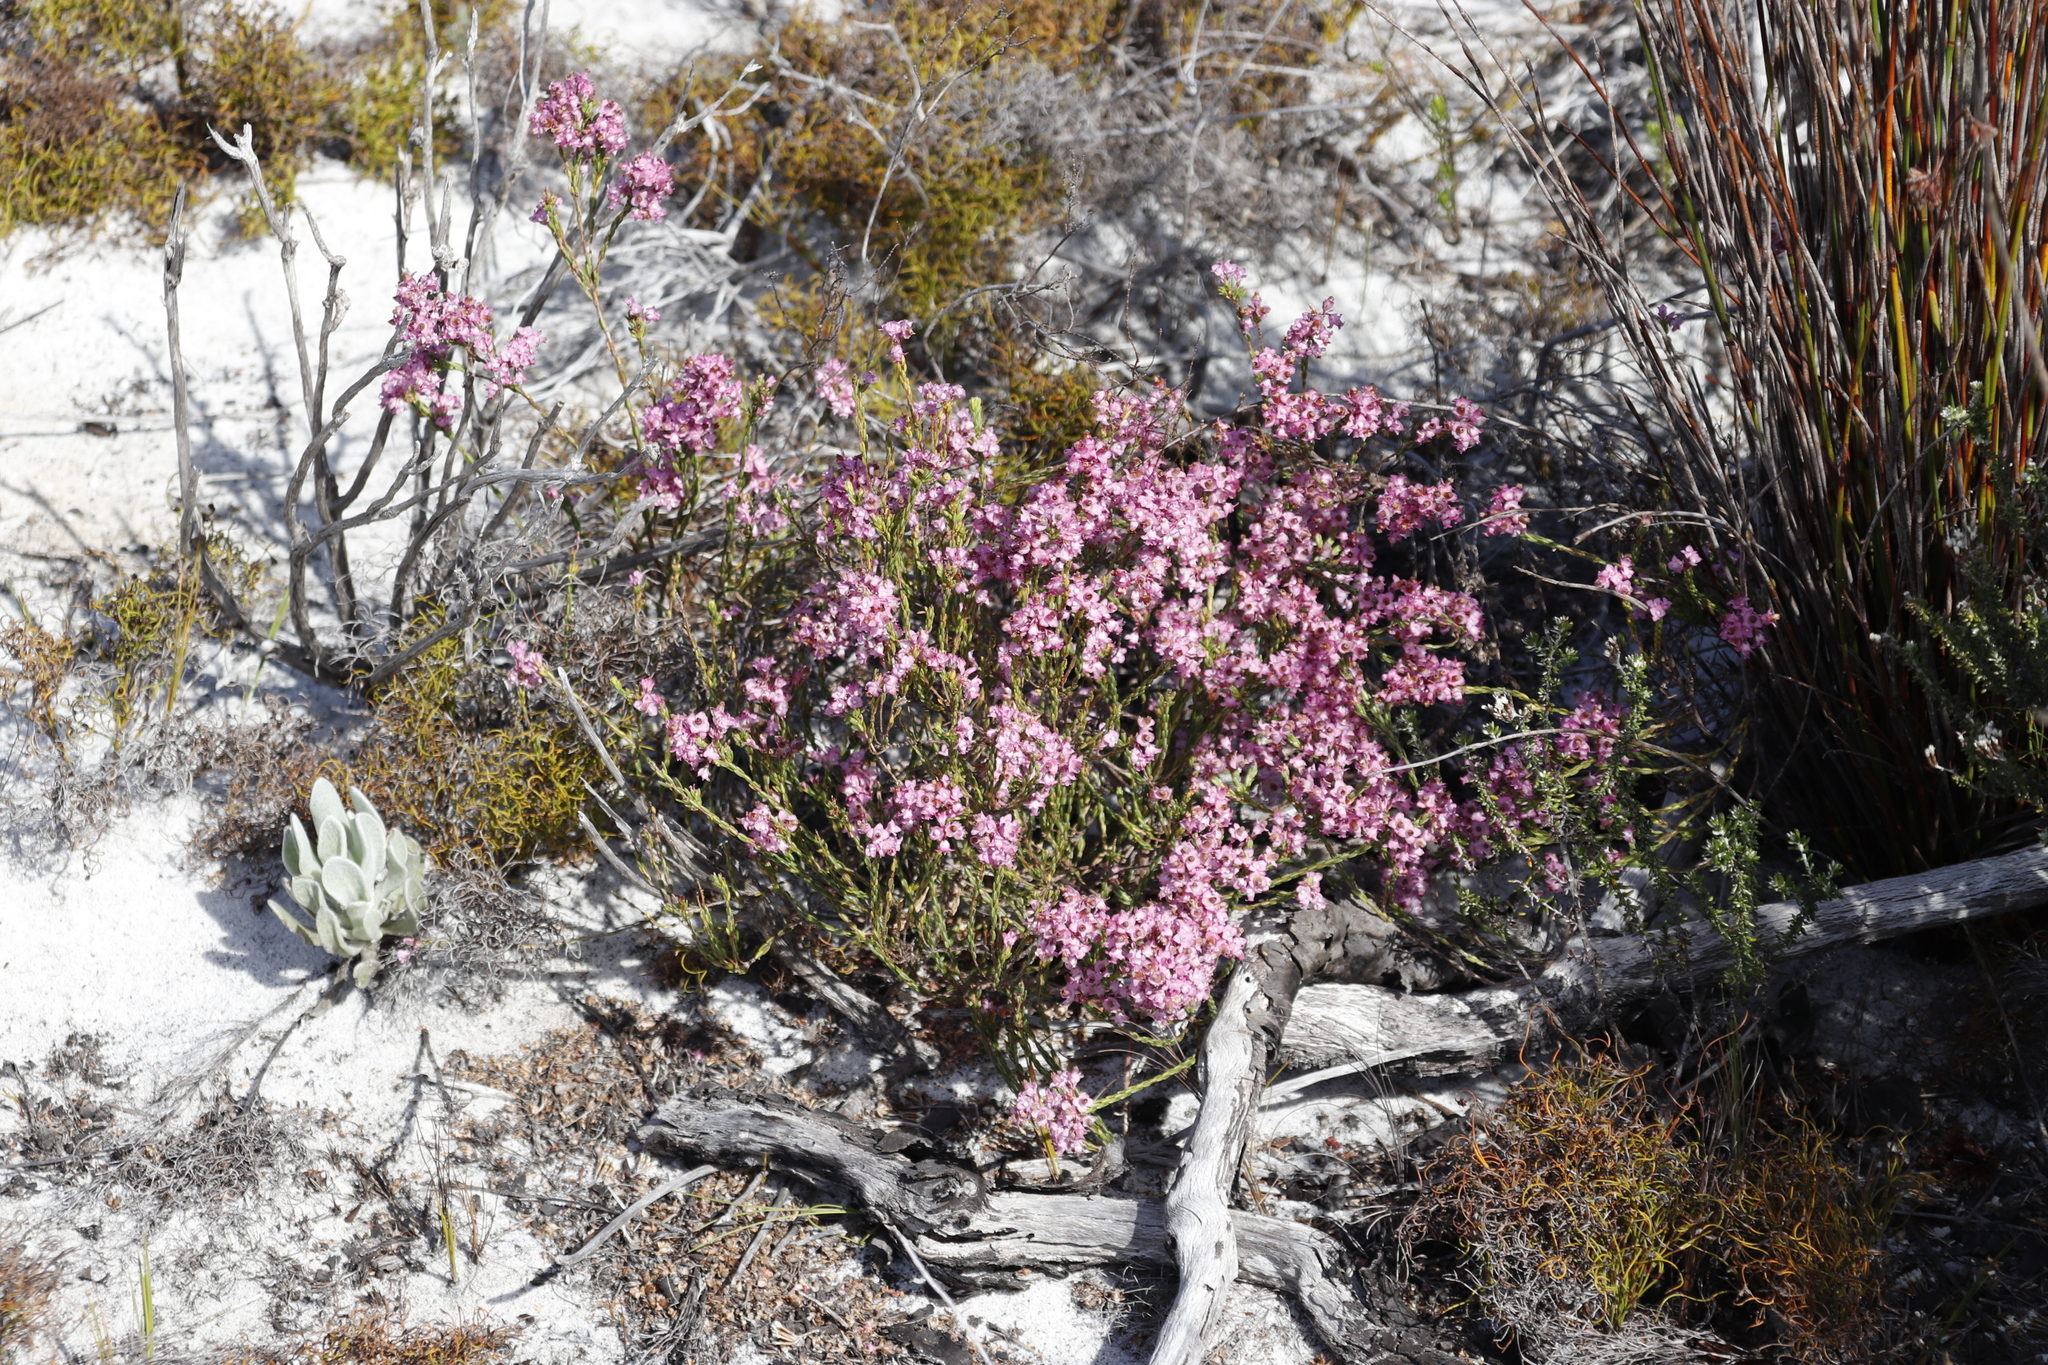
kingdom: Plantae
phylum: Tracheophyta
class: Magnoliopsida
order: Ericales
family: Ericaceae
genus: Erica
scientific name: Erica corifolia
